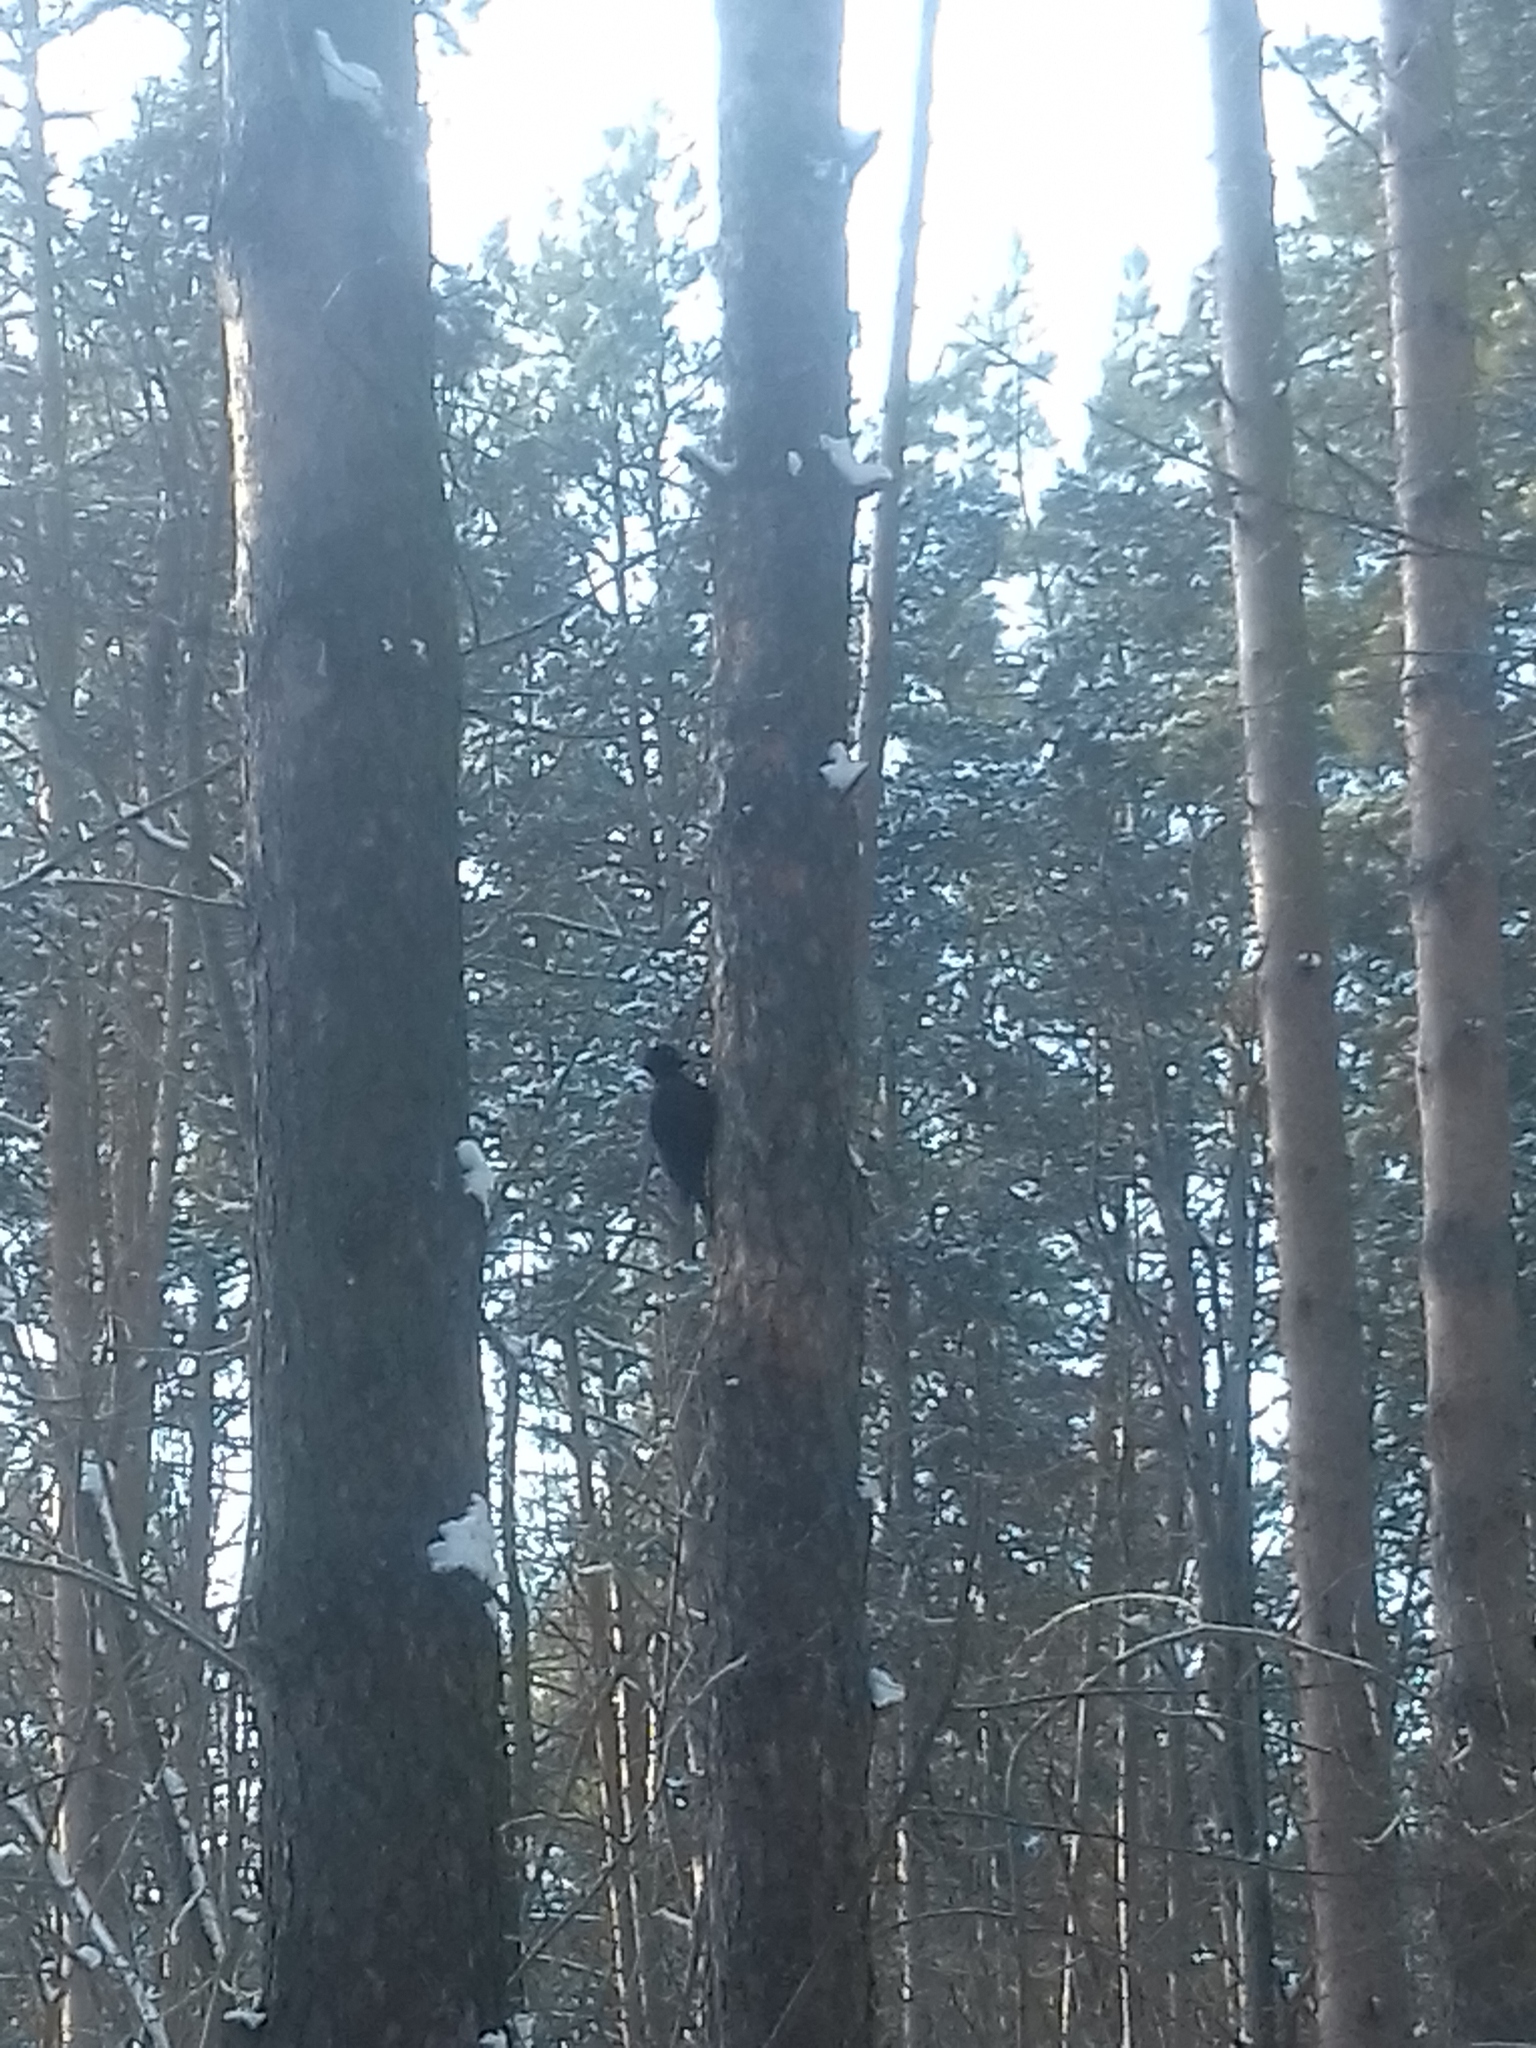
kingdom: Animalia
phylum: Chordata
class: Aves
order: Piciformes
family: Picidae
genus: Dryocopus
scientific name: Dryocopus martius
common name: Black woodpecker
